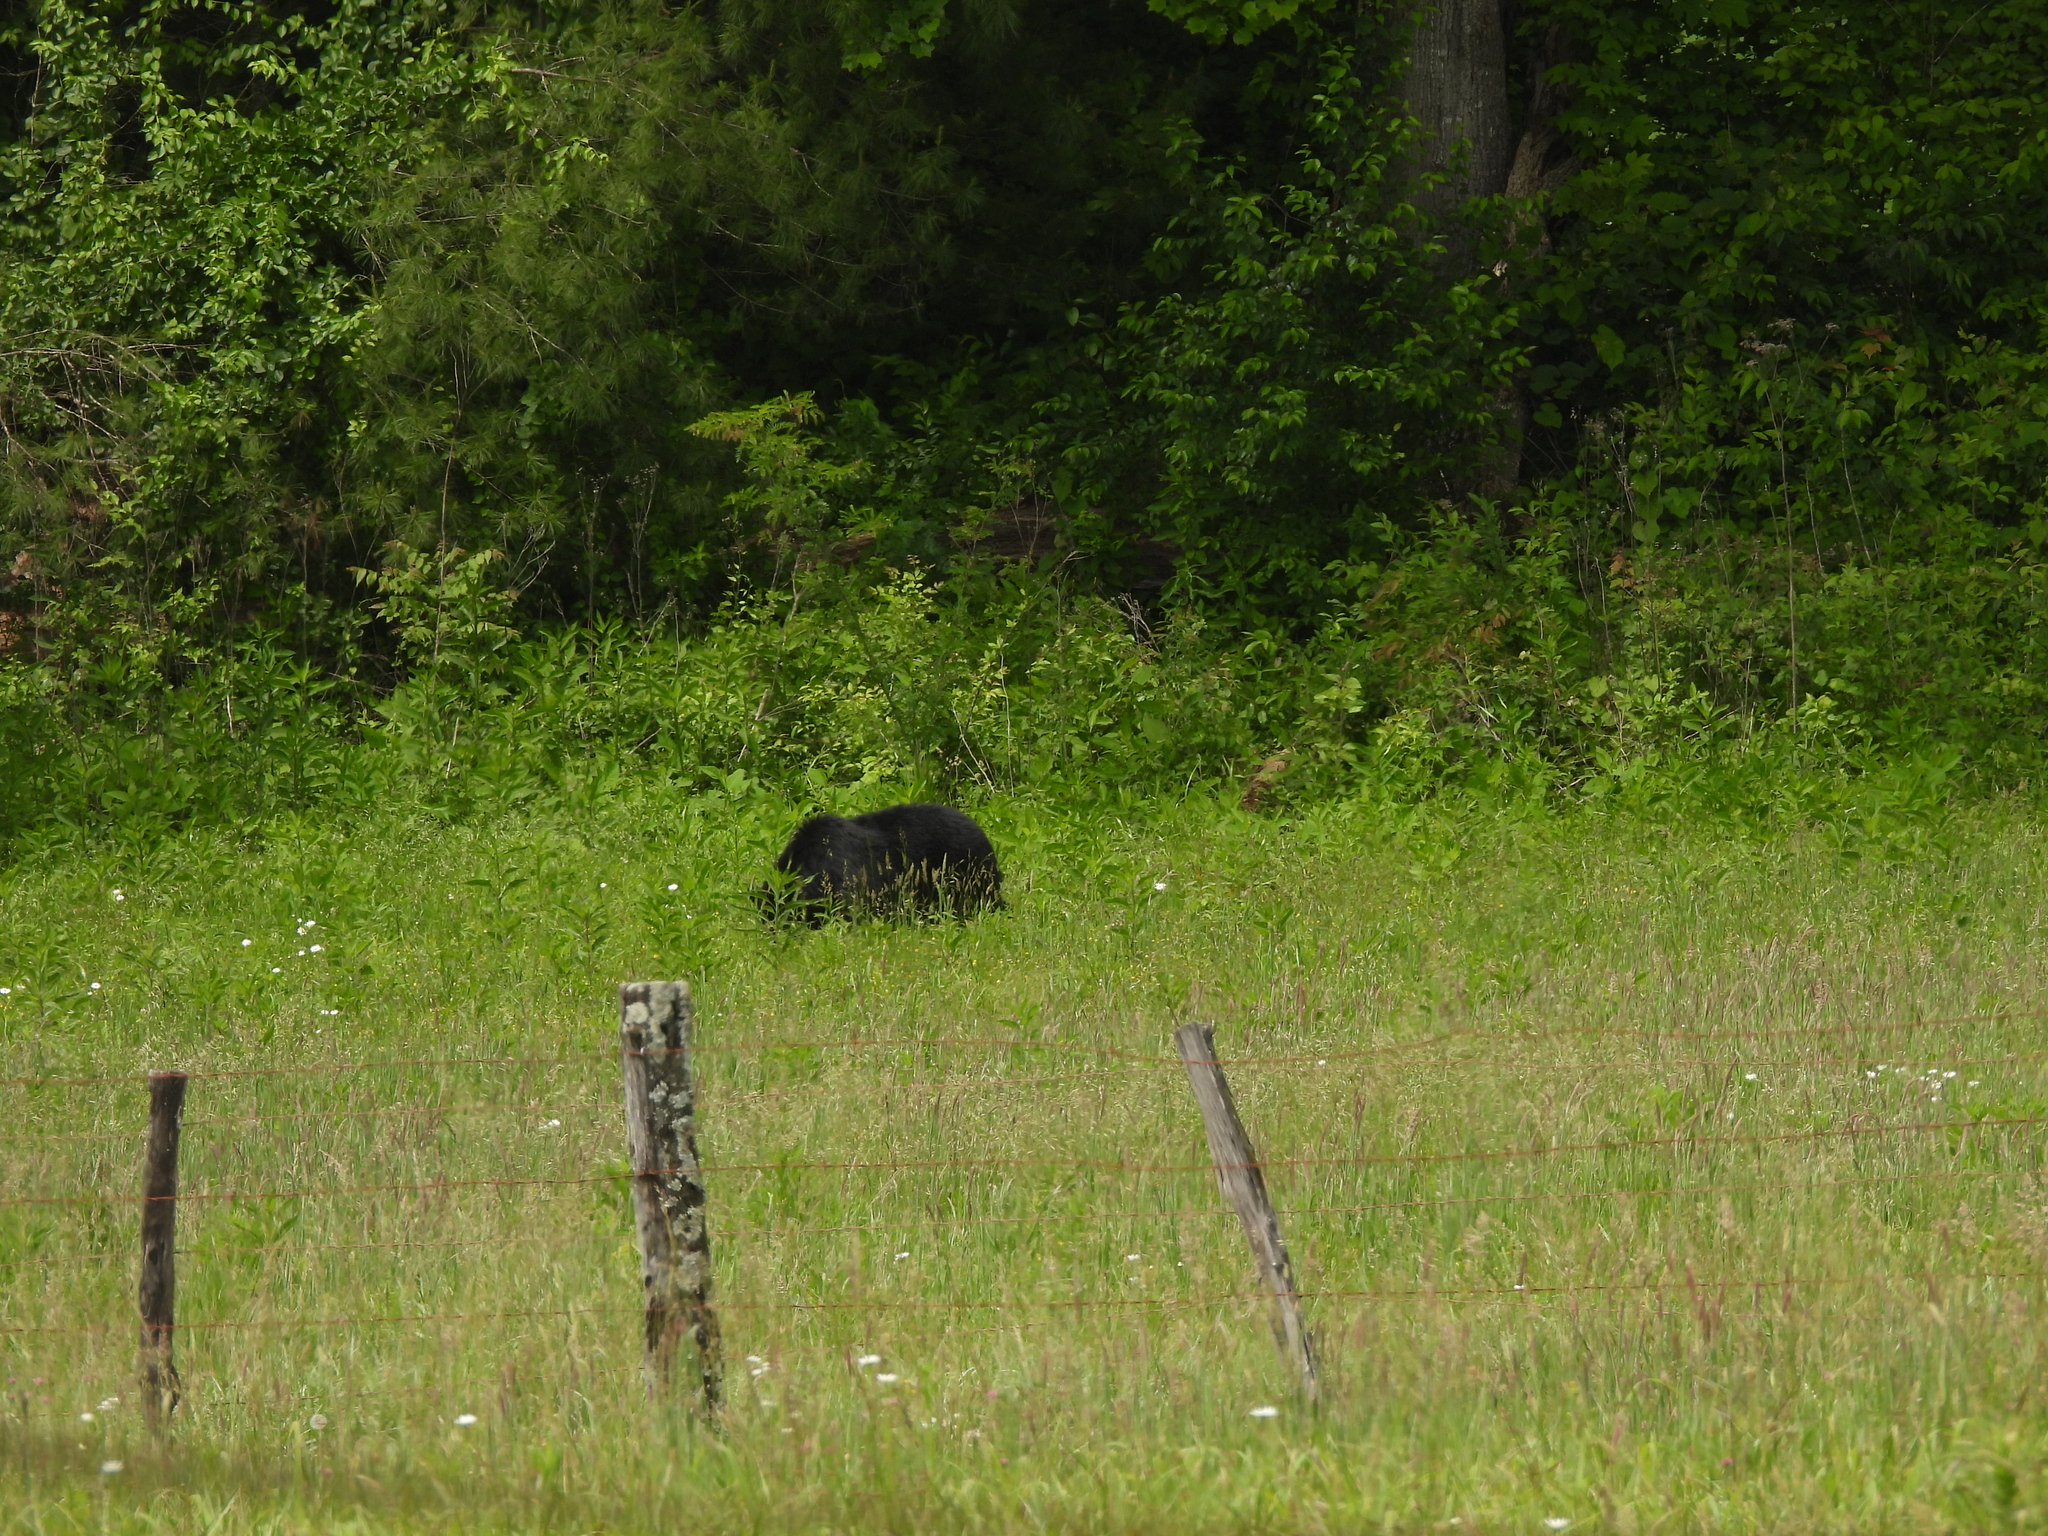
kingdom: Animalia
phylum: Chordata
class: Mammalia
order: Carnivora
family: Ursidae
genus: Ursus
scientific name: Ursus americanus
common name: American black bear
